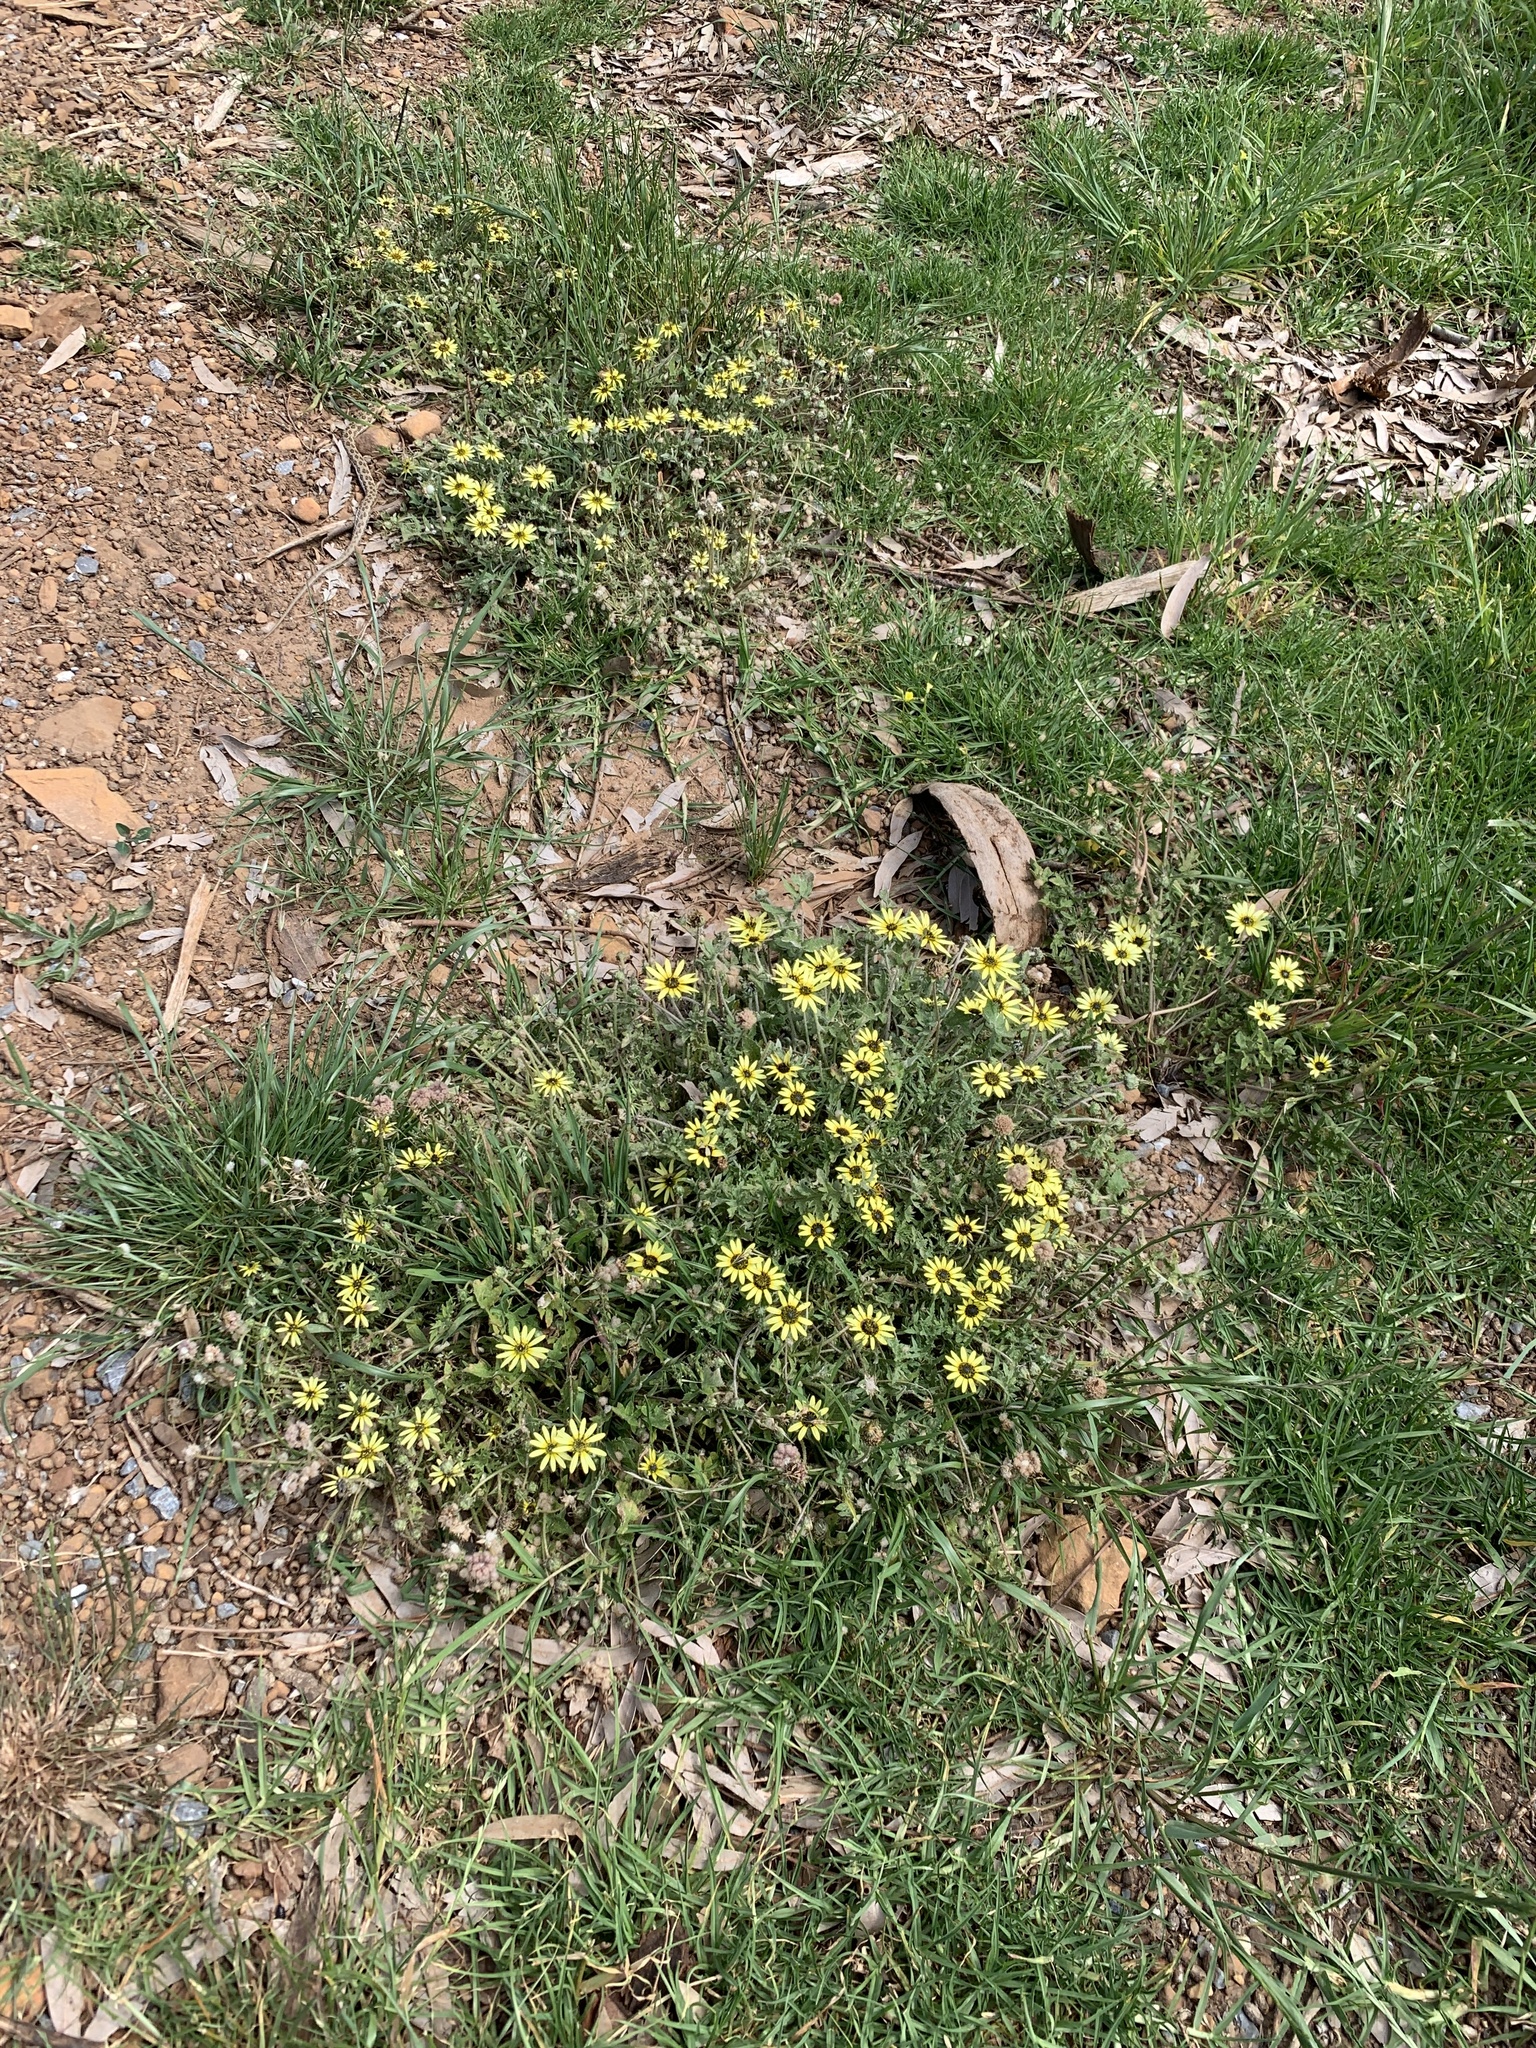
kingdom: Plantae
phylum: Tracheophyta
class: Magnoliopsida
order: Asterales
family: Asteraceae
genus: Arctotheca
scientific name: Arctotheca calendula
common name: Capeweed
